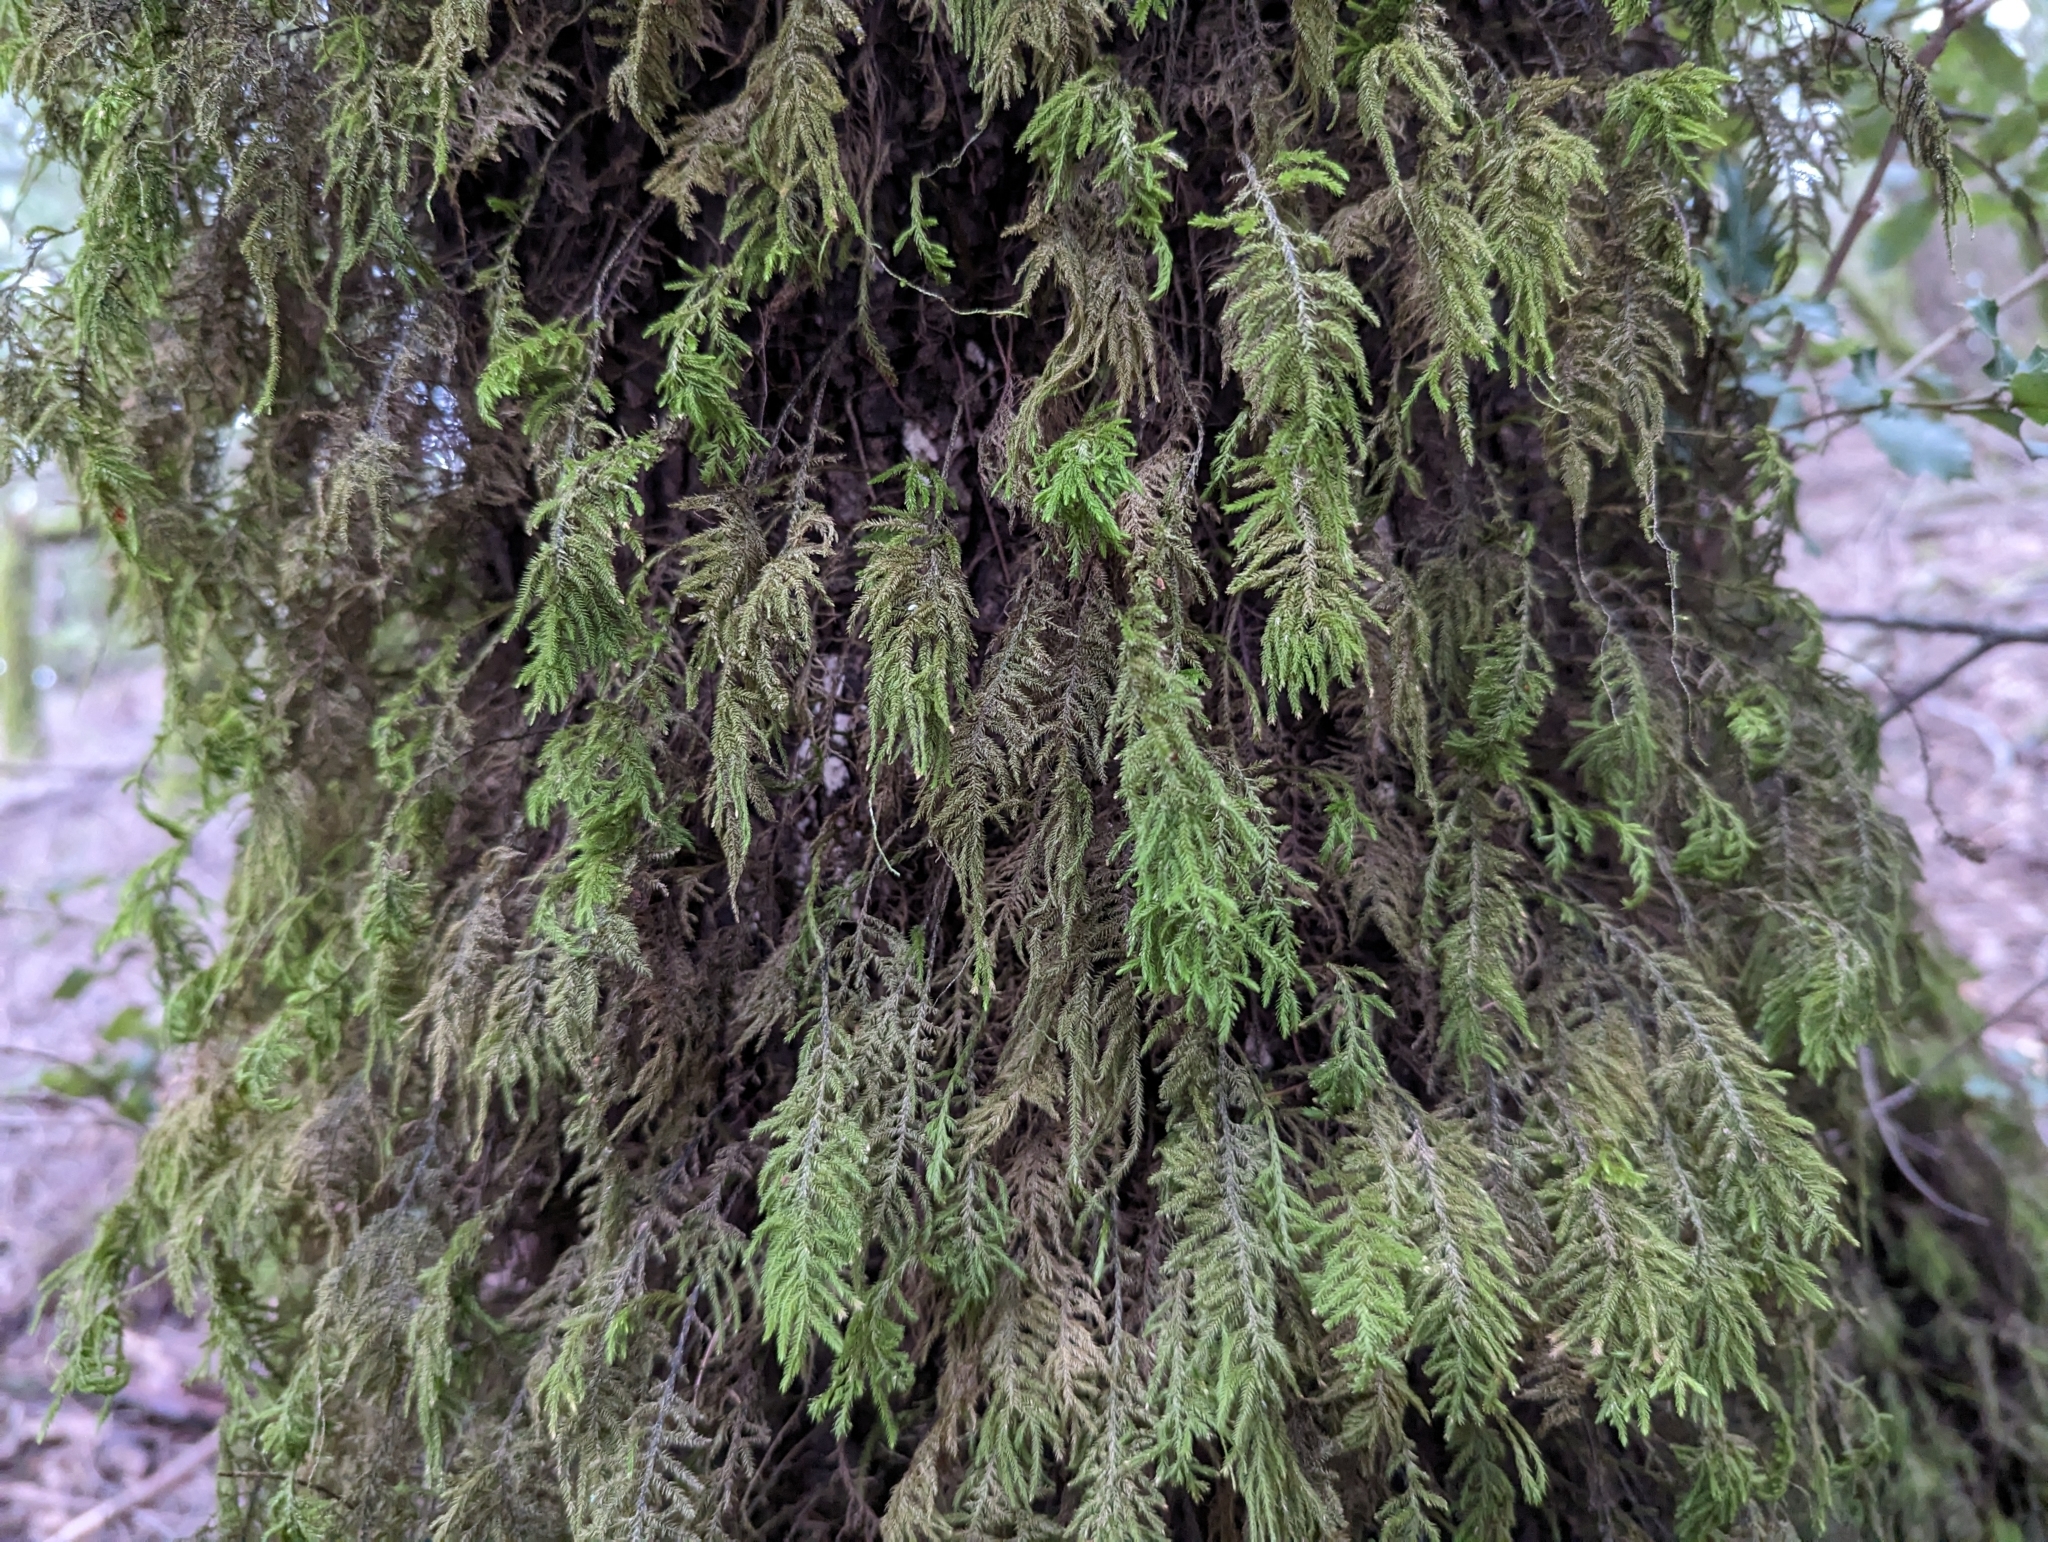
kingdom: Plantae
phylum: Bryophyta
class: Bryopsida
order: Hypnales
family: Cryphaeaceae
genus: Dendroalsia
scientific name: Dendroalsia abietina
